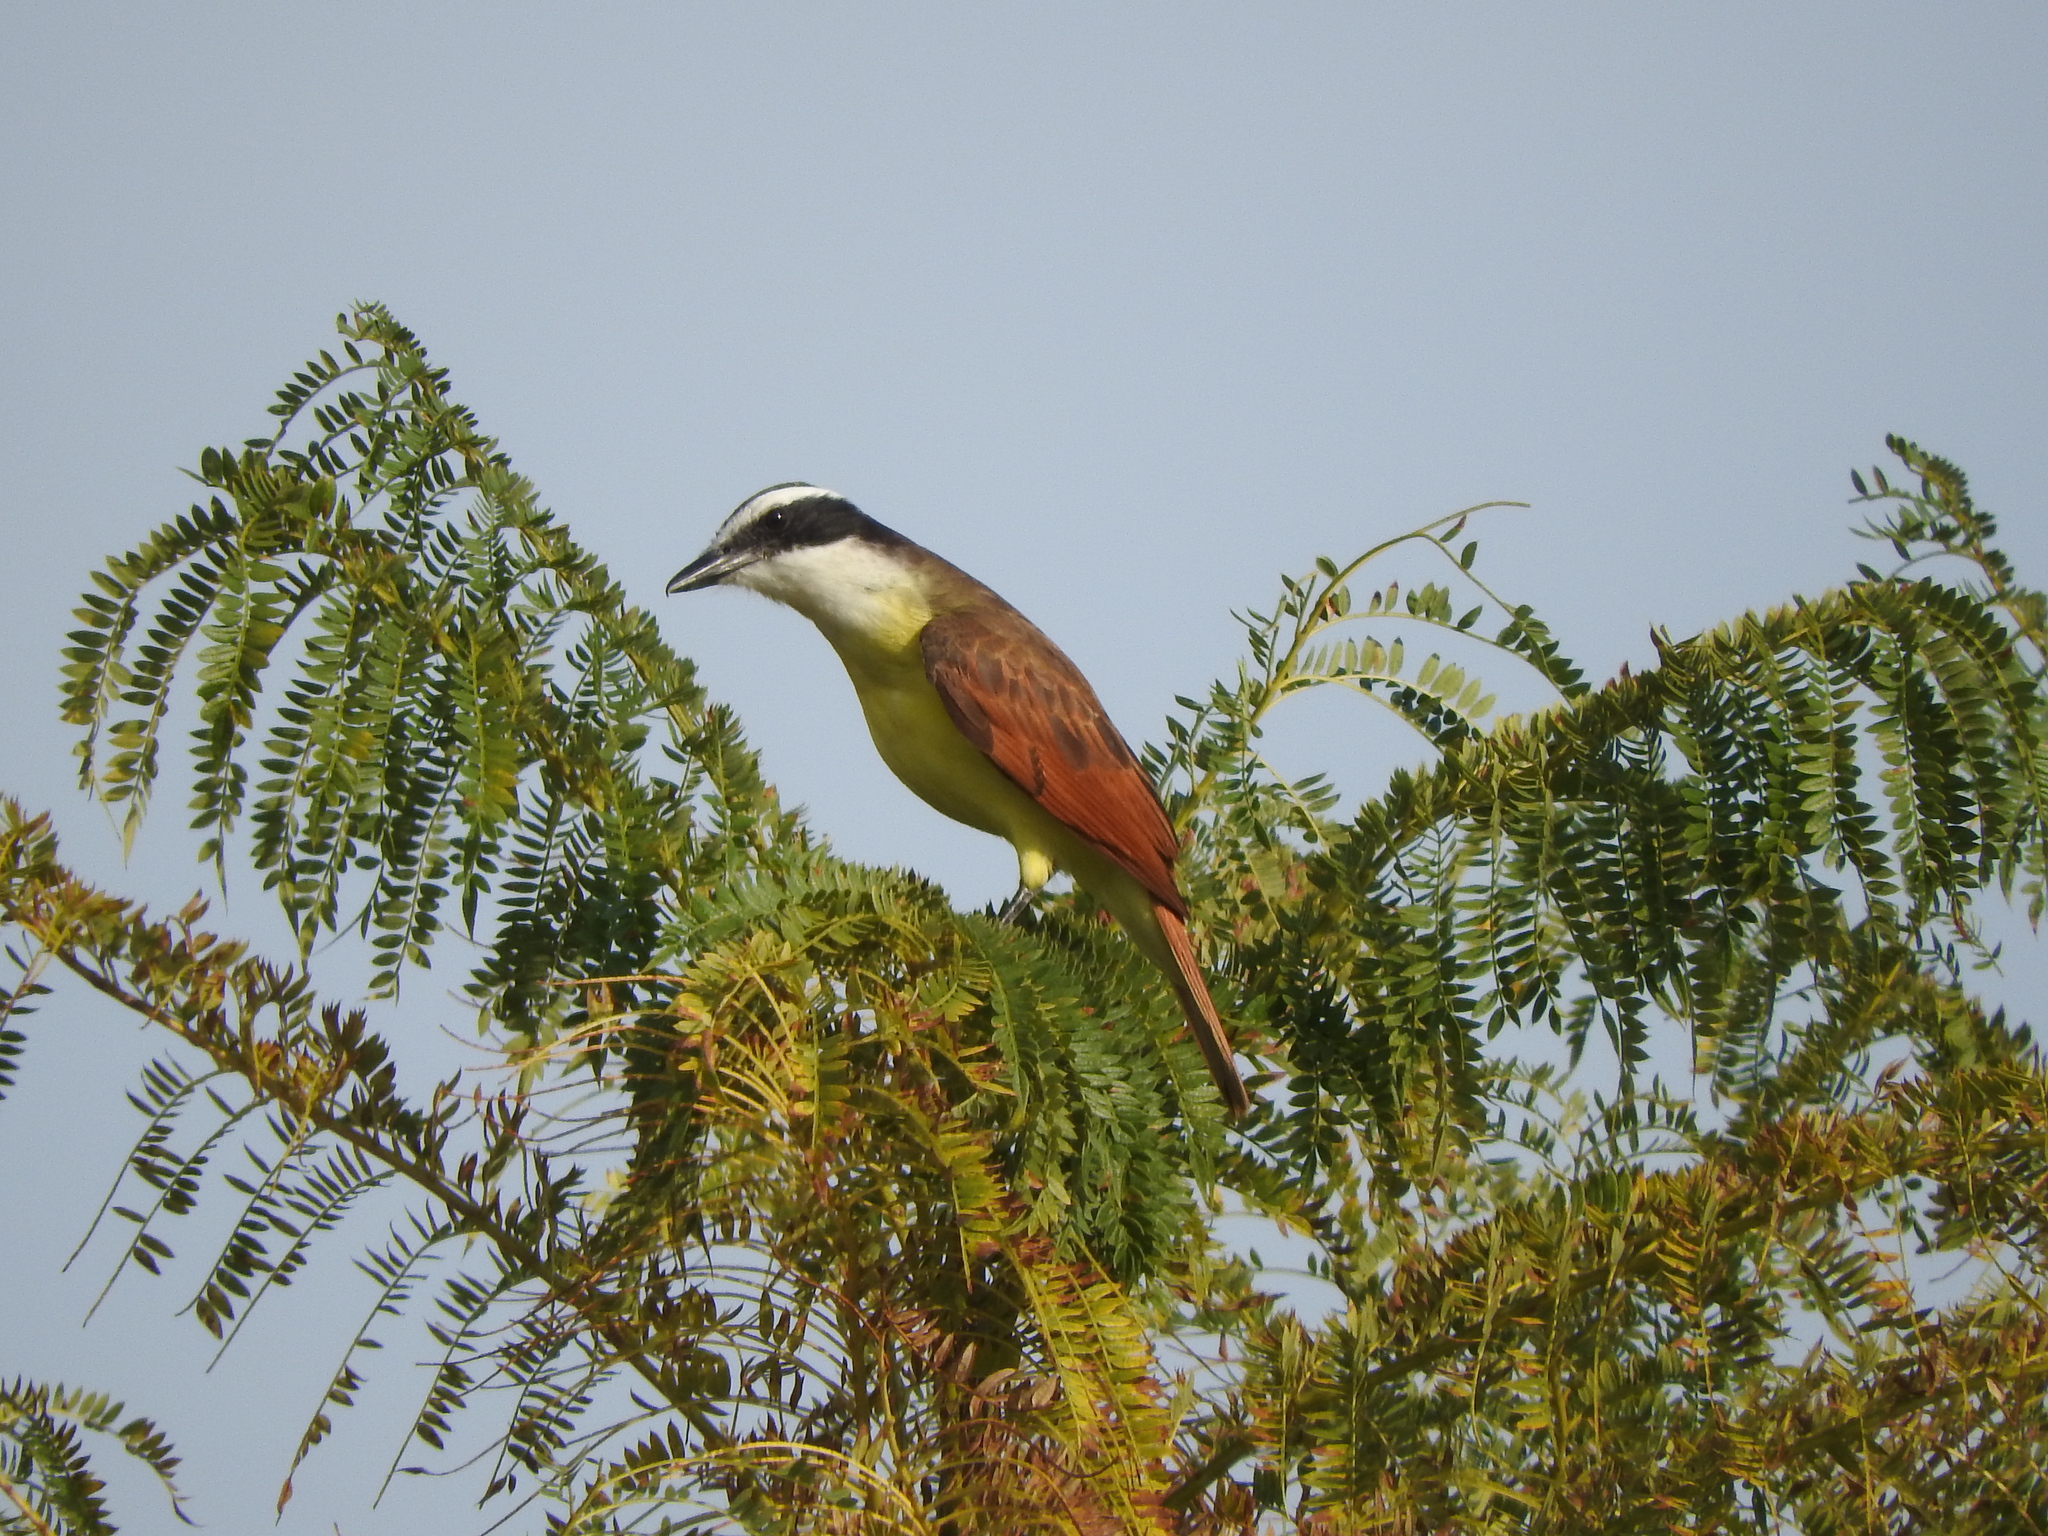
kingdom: Animalia
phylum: Chordata
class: Aves
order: Passeriformes
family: Tyrannidae
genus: Pitangus
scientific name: Pitangus sulphuratus
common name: Great kiskadee
